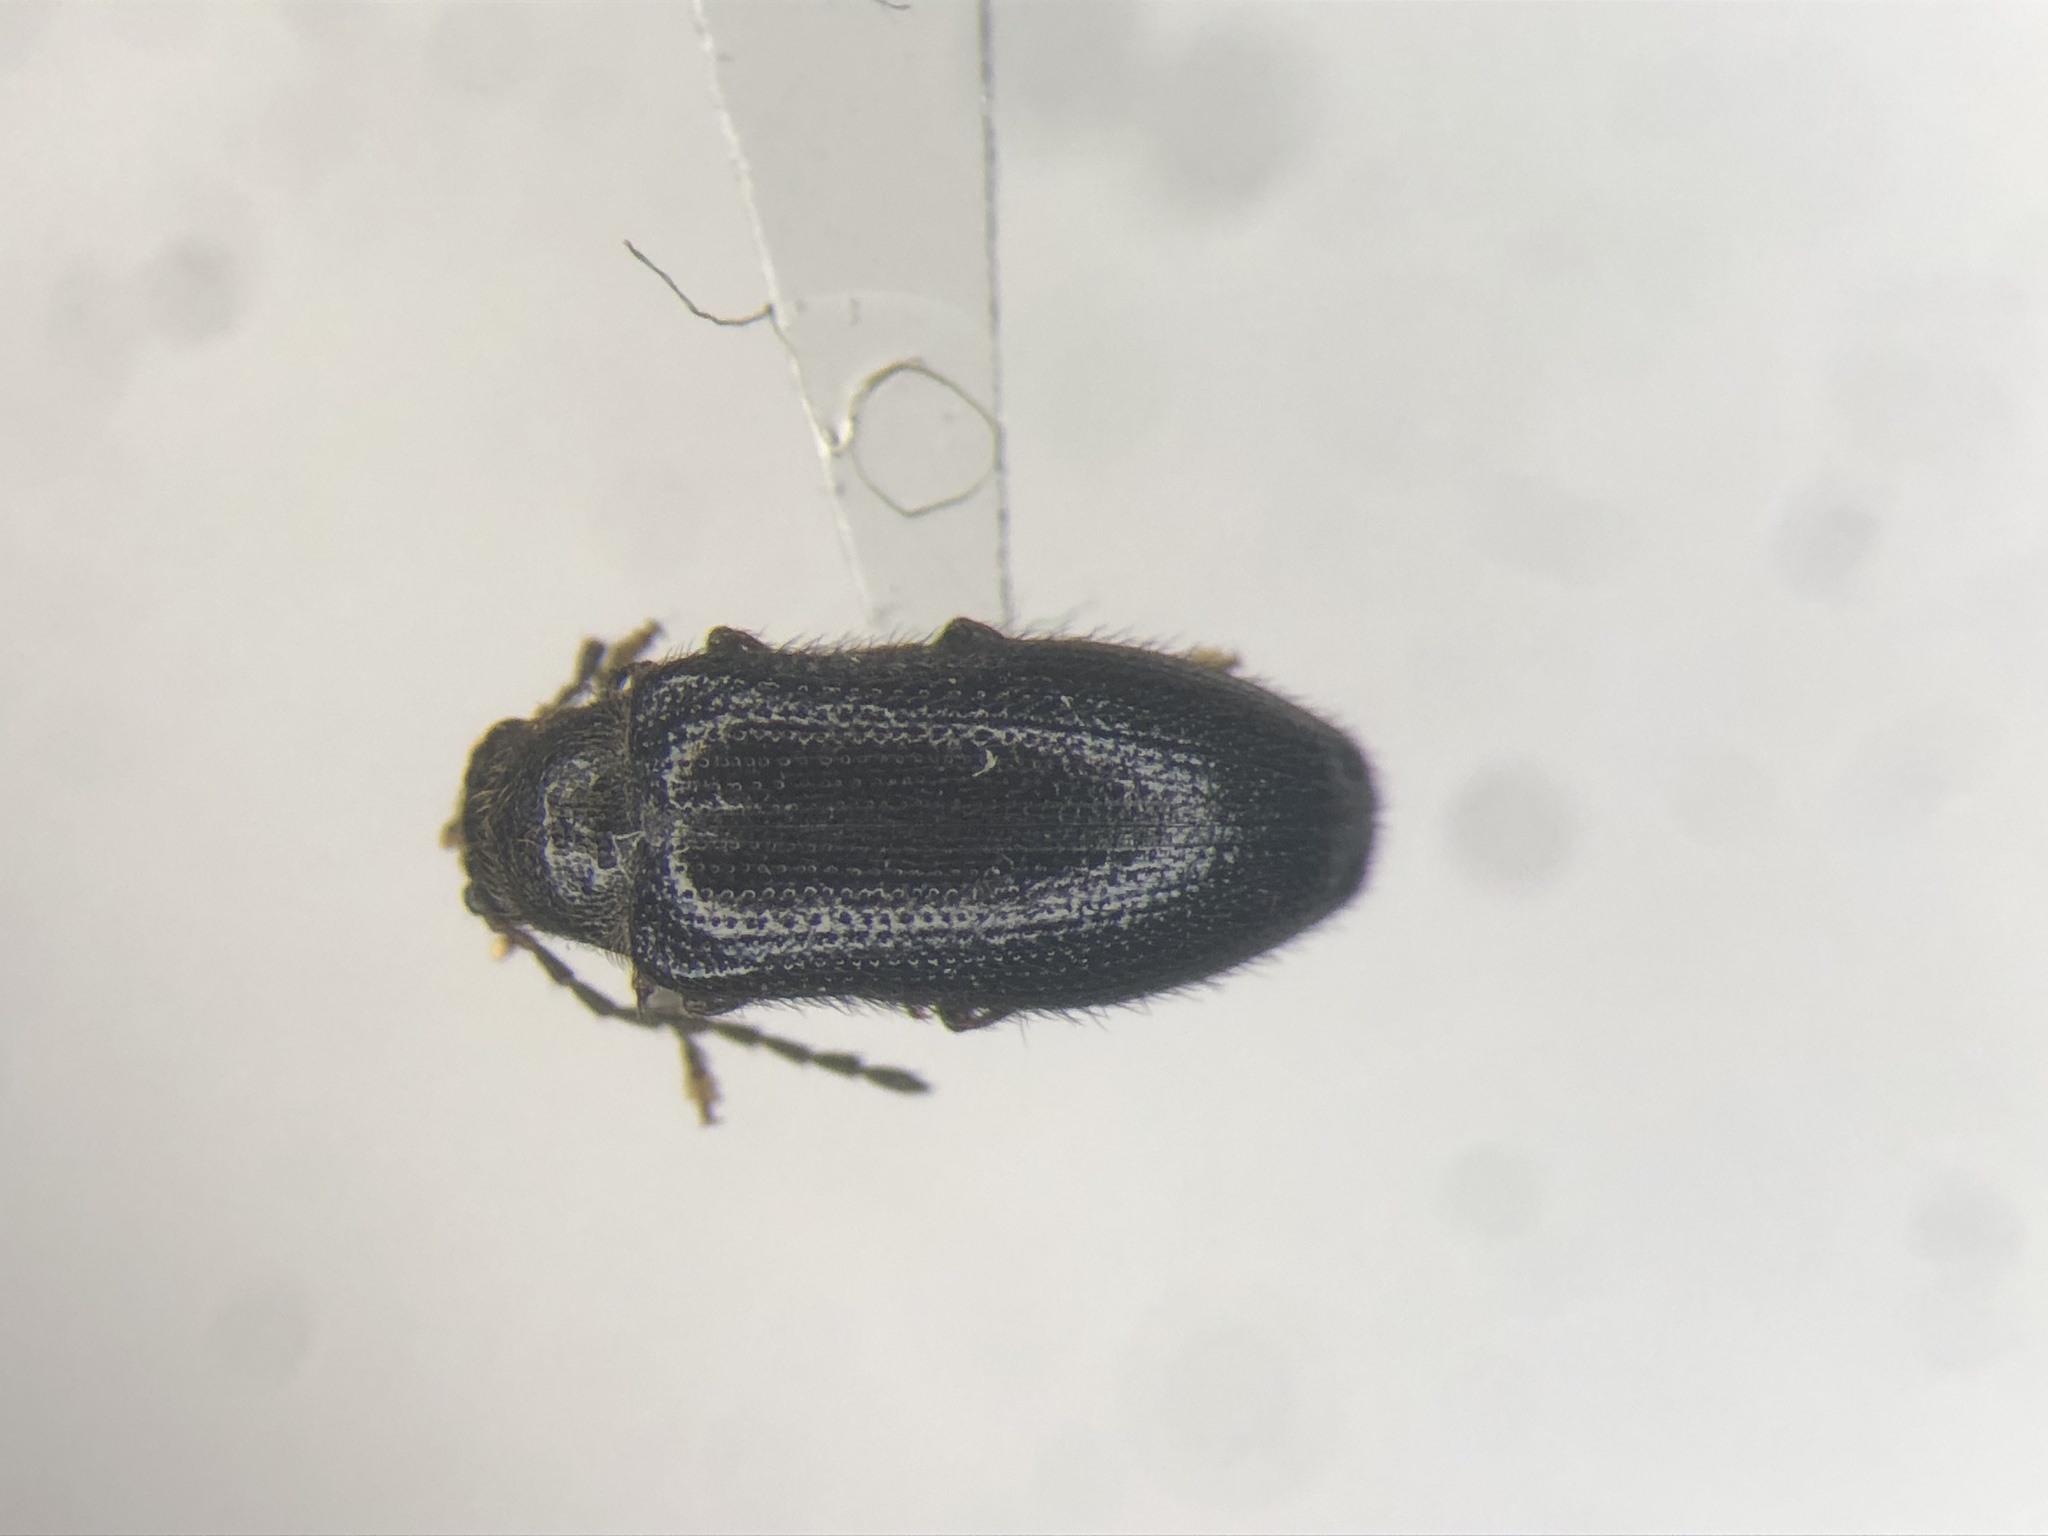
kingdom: Animalia
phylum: Arthropoda
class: Insecta
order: Coleoptera
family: Artematopodidae
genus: Eurypogon
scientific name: Eurypogon harrisii
